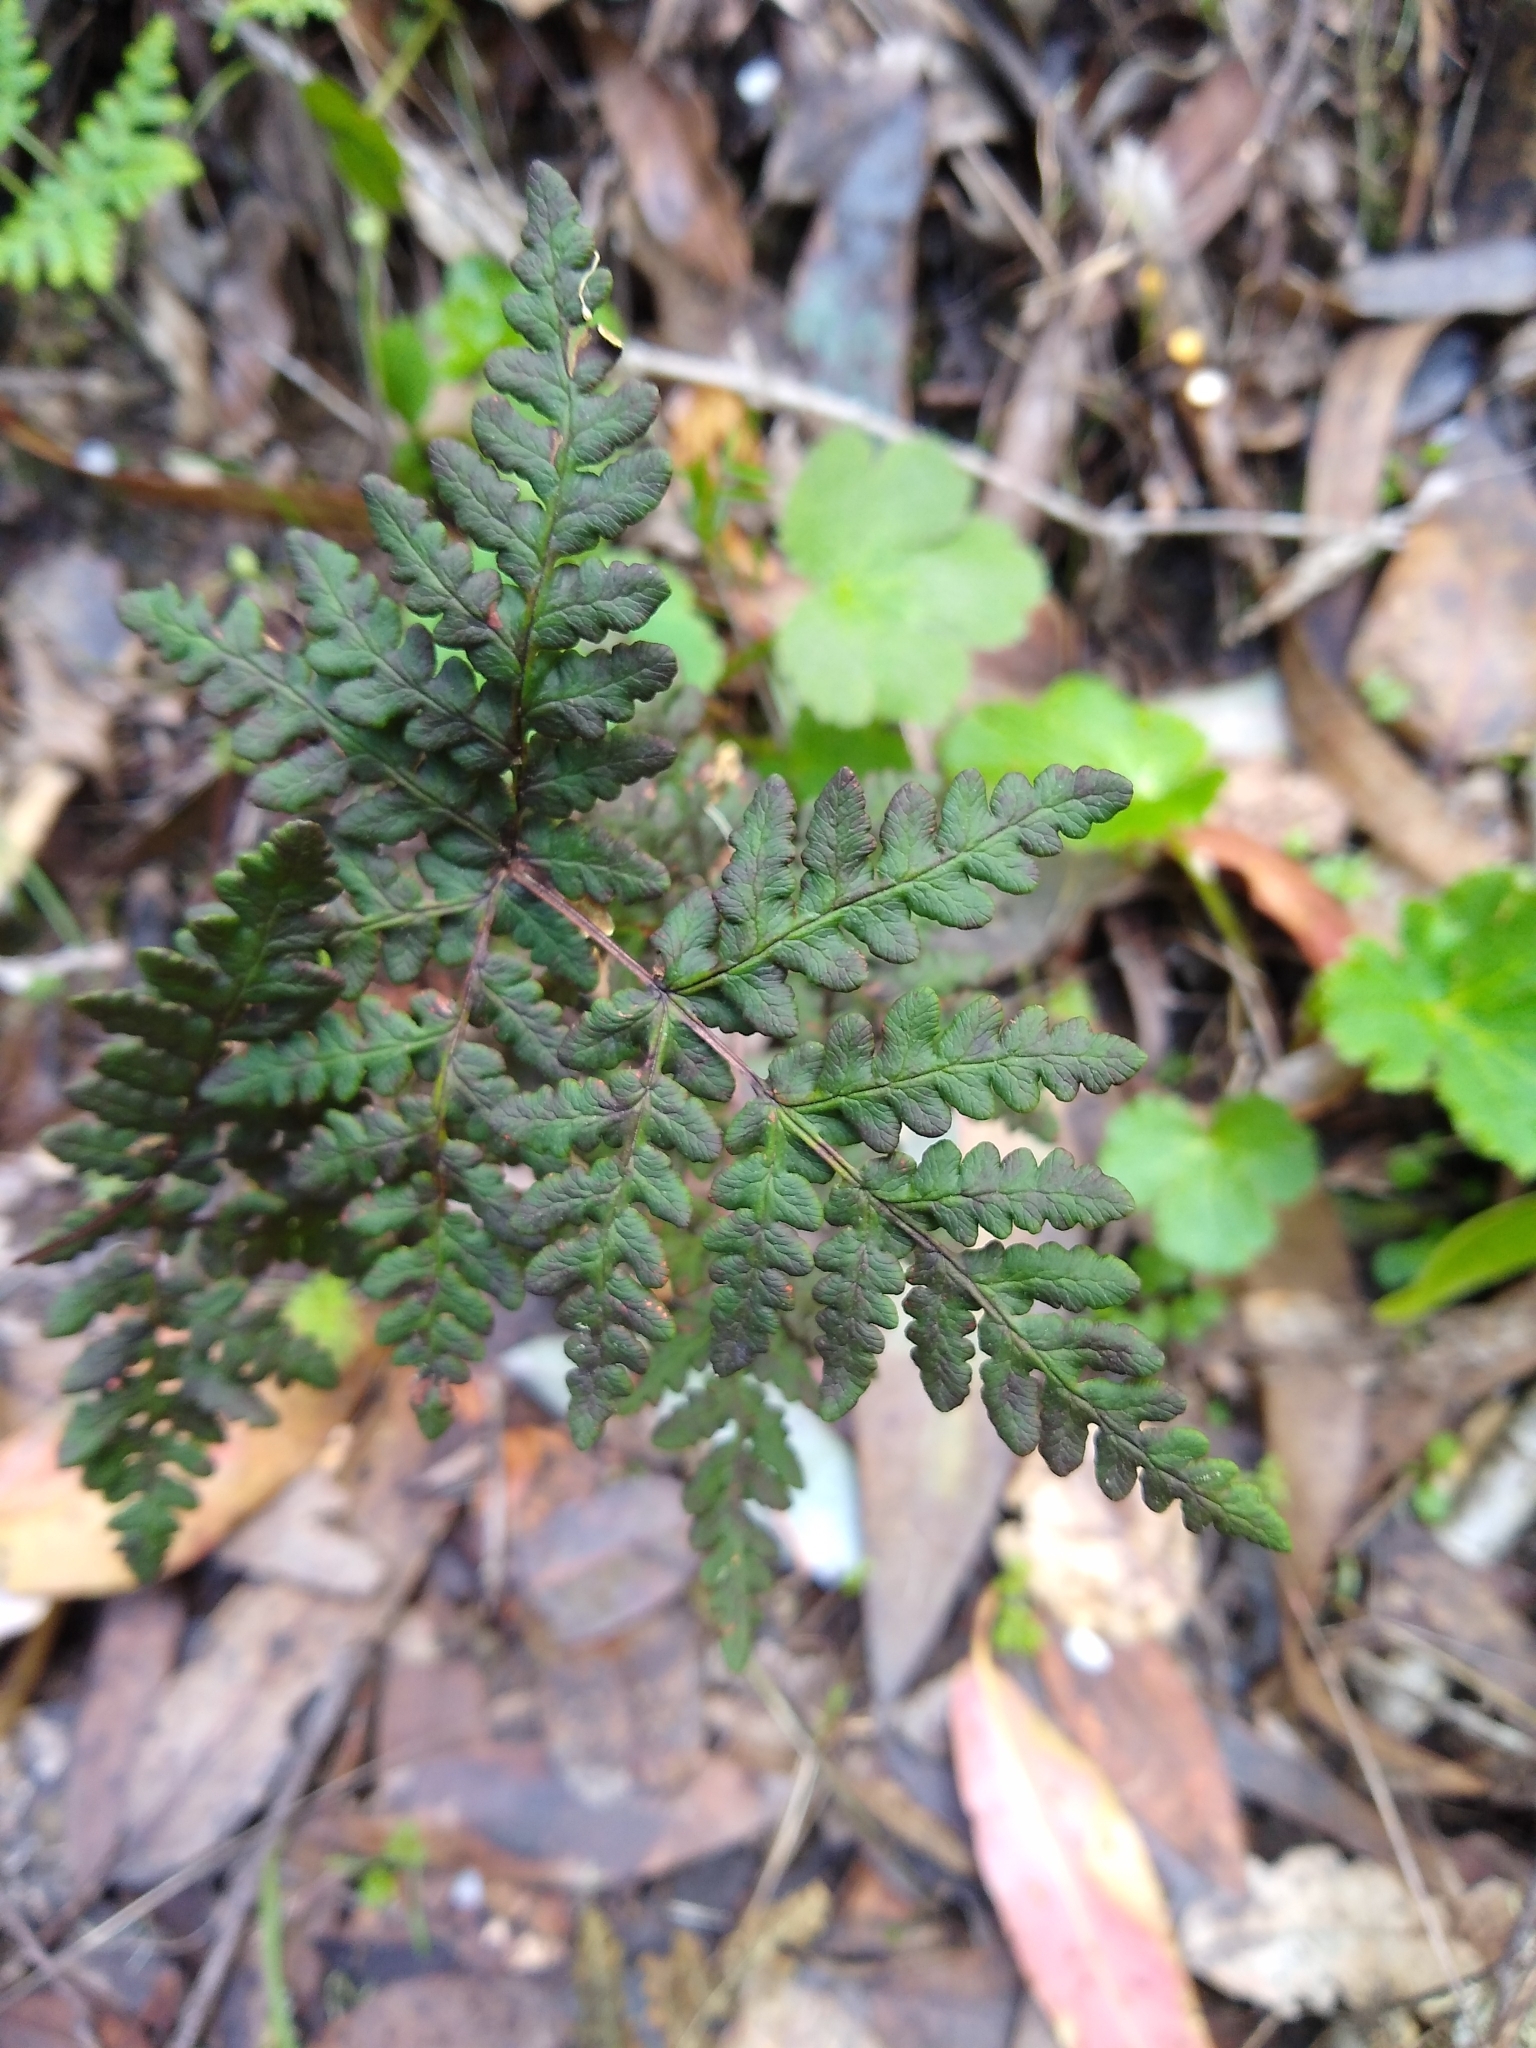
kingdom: Plantae
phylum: Tracheophyta
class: Polypodiopsida
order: Polypodiales
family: Pteridaceae
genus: Pentagramma
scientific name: Pentagramma triangularis
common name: Gold fern
